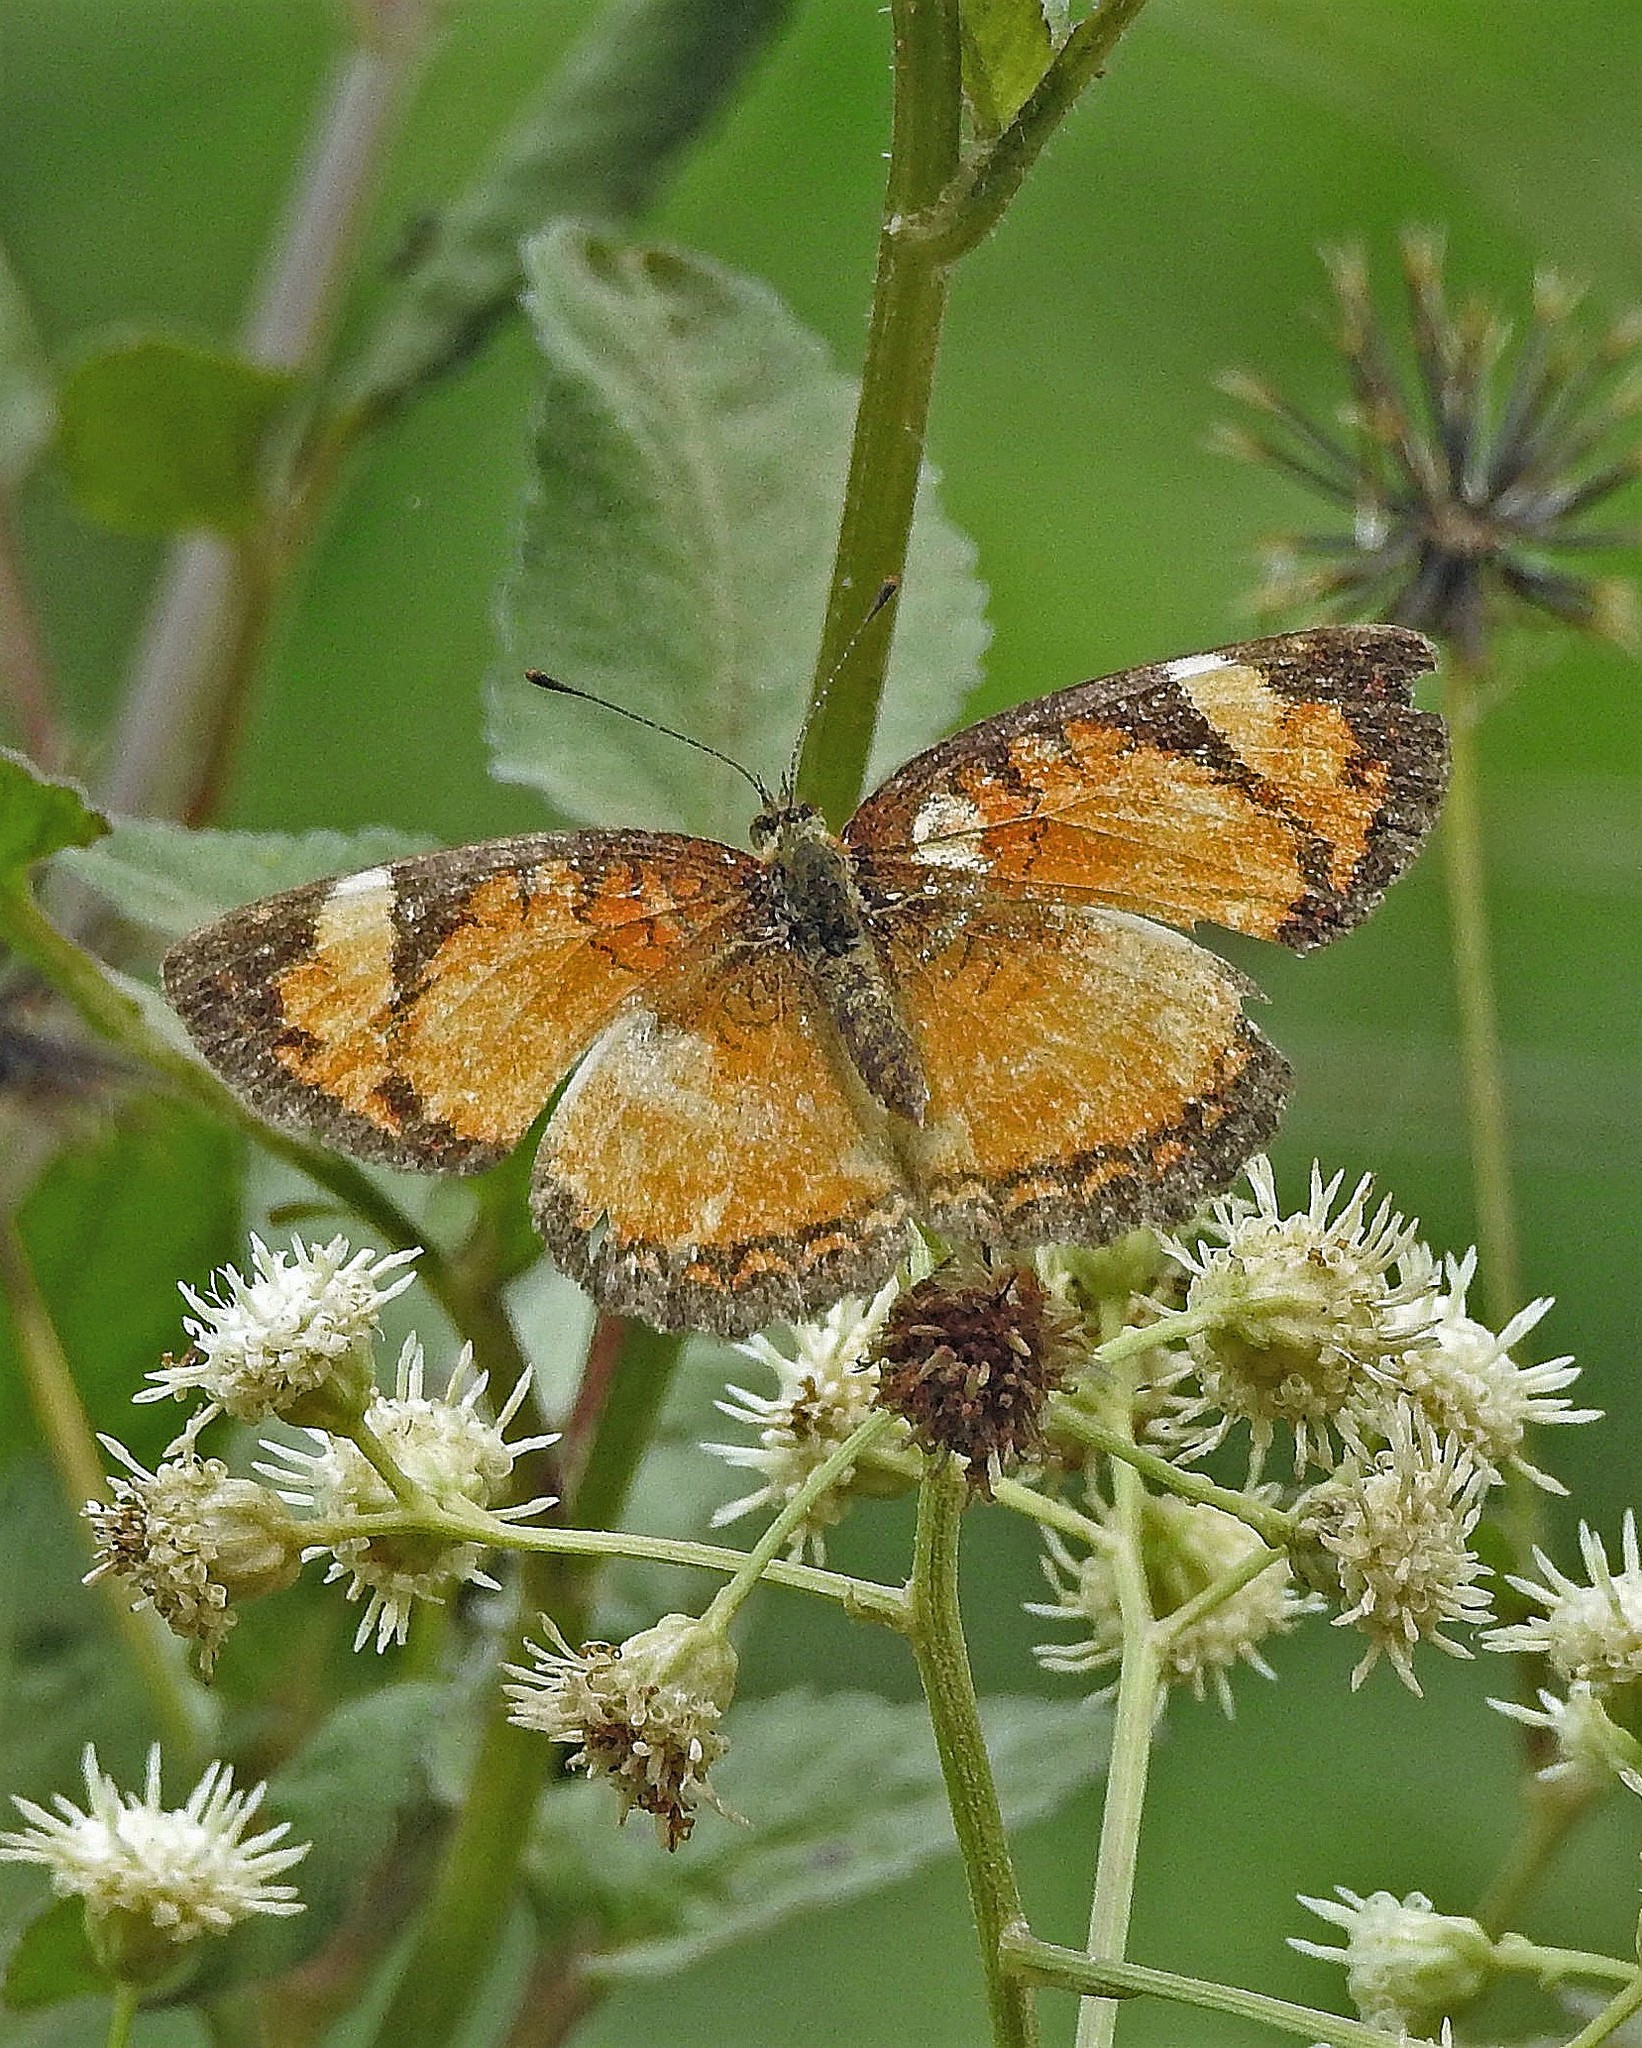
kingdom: Animalia
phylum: Arthropoda
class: Insecta
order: Lepidoptera
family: Nymphalidae
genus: Ortilia
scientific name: Ortilia gentina
